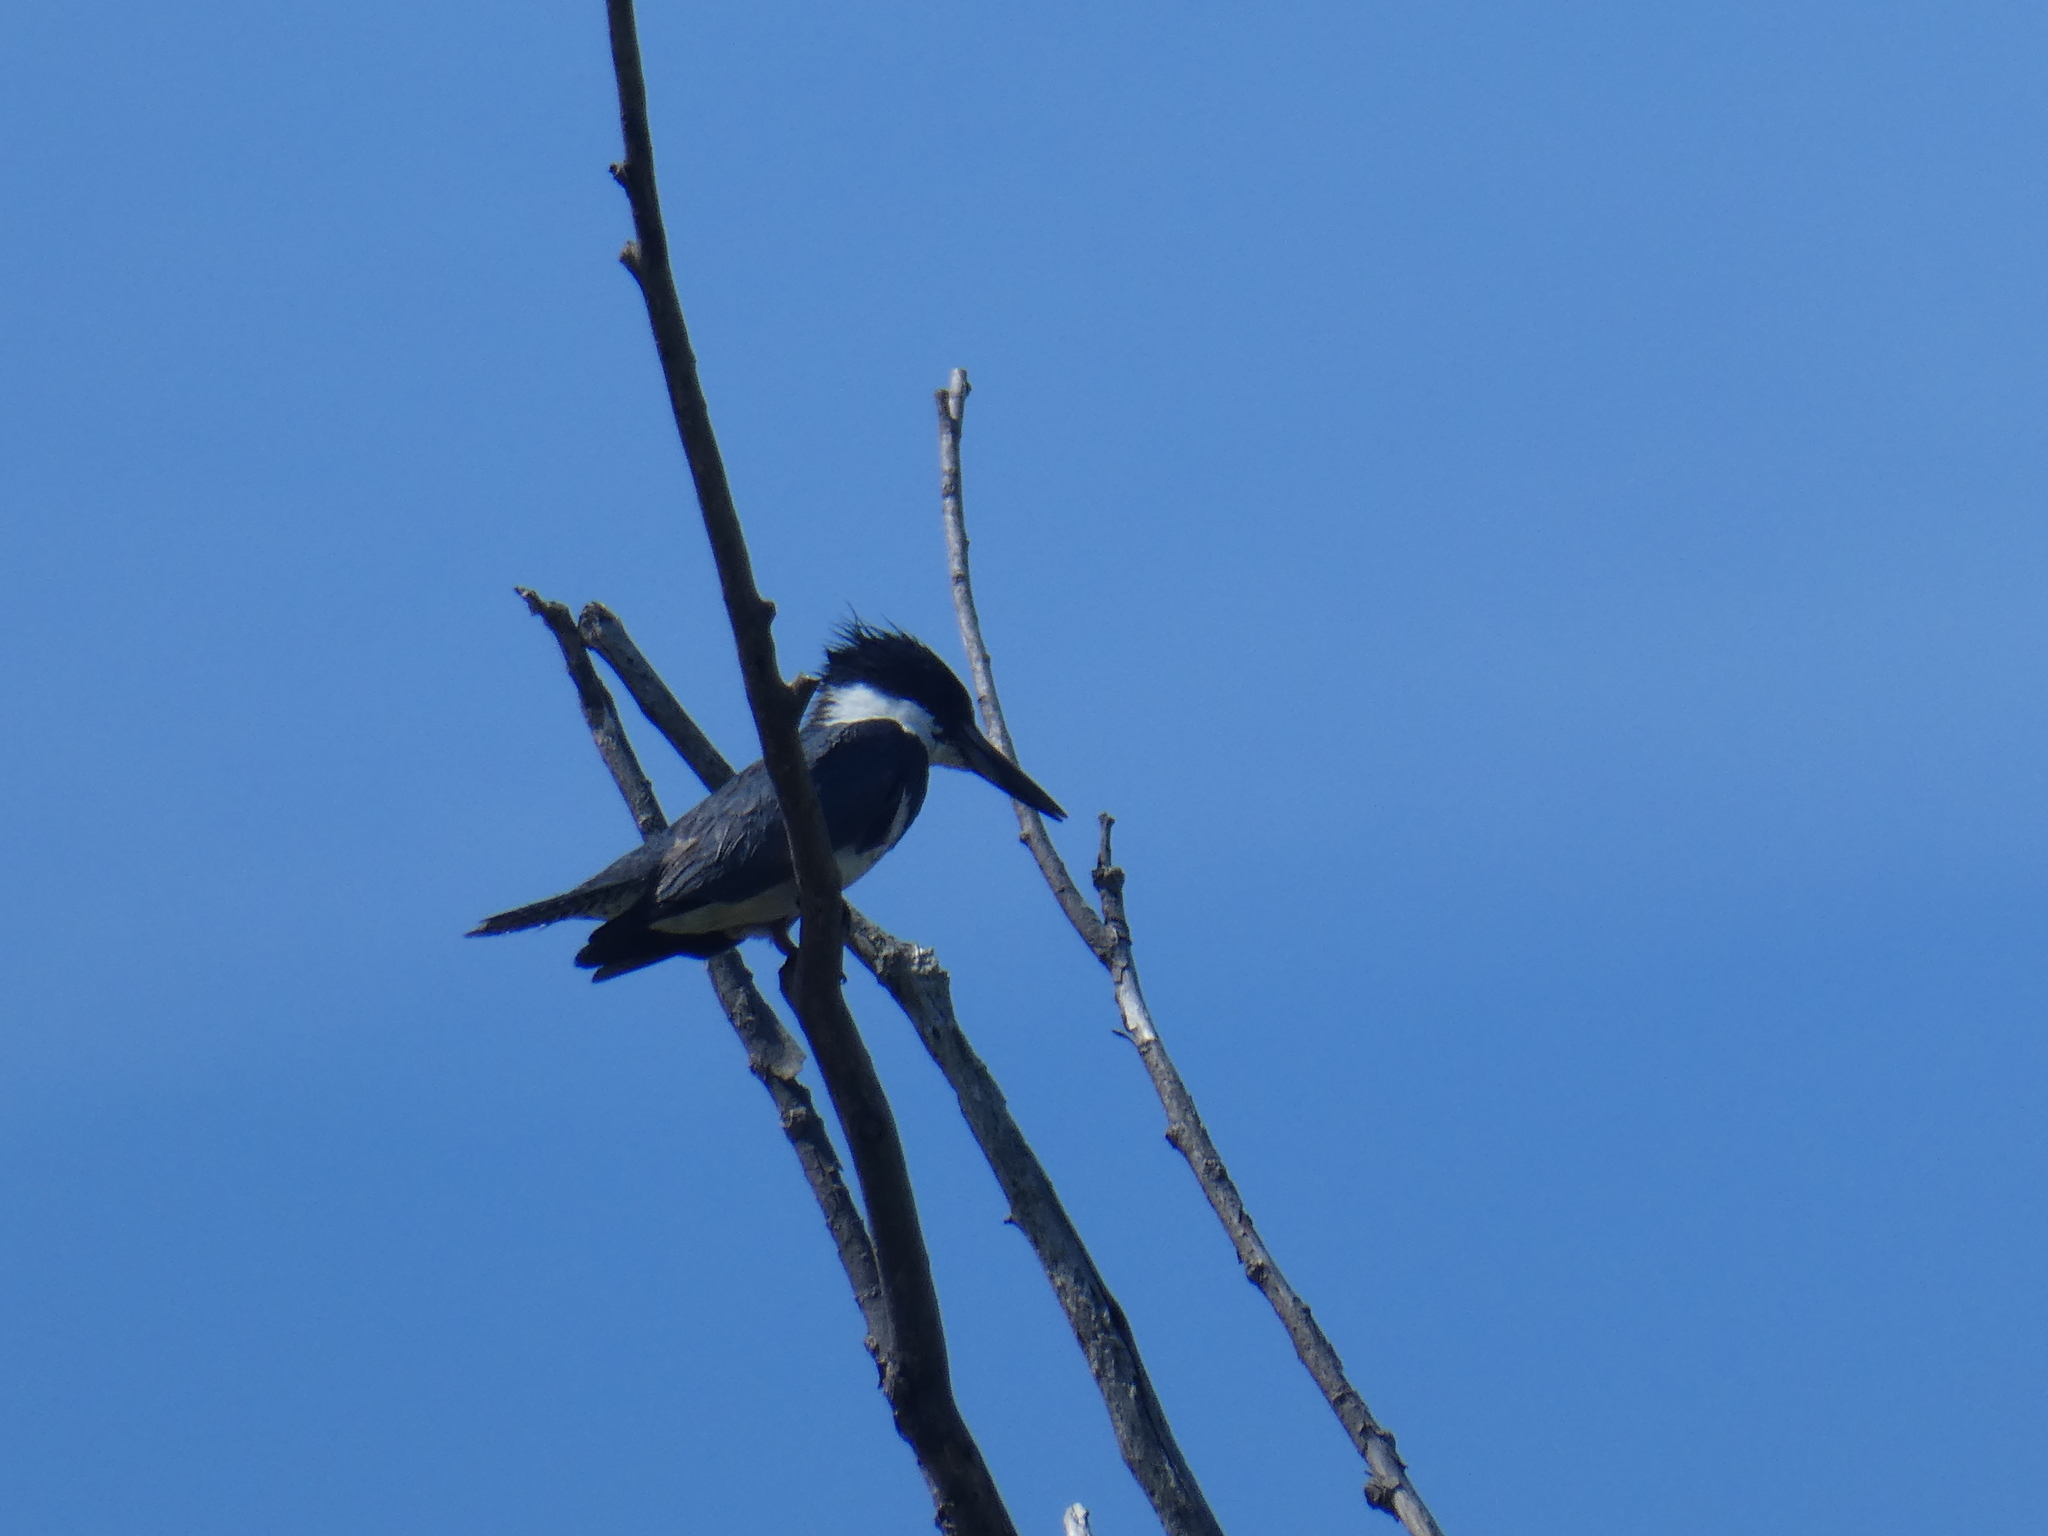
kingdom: Animalia
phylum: Chordata
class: Aves
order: Coraciiformes
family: Alcedinidae
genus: Megaceryle
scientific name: Megaceryle alcyon
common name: Belted kingfisher
